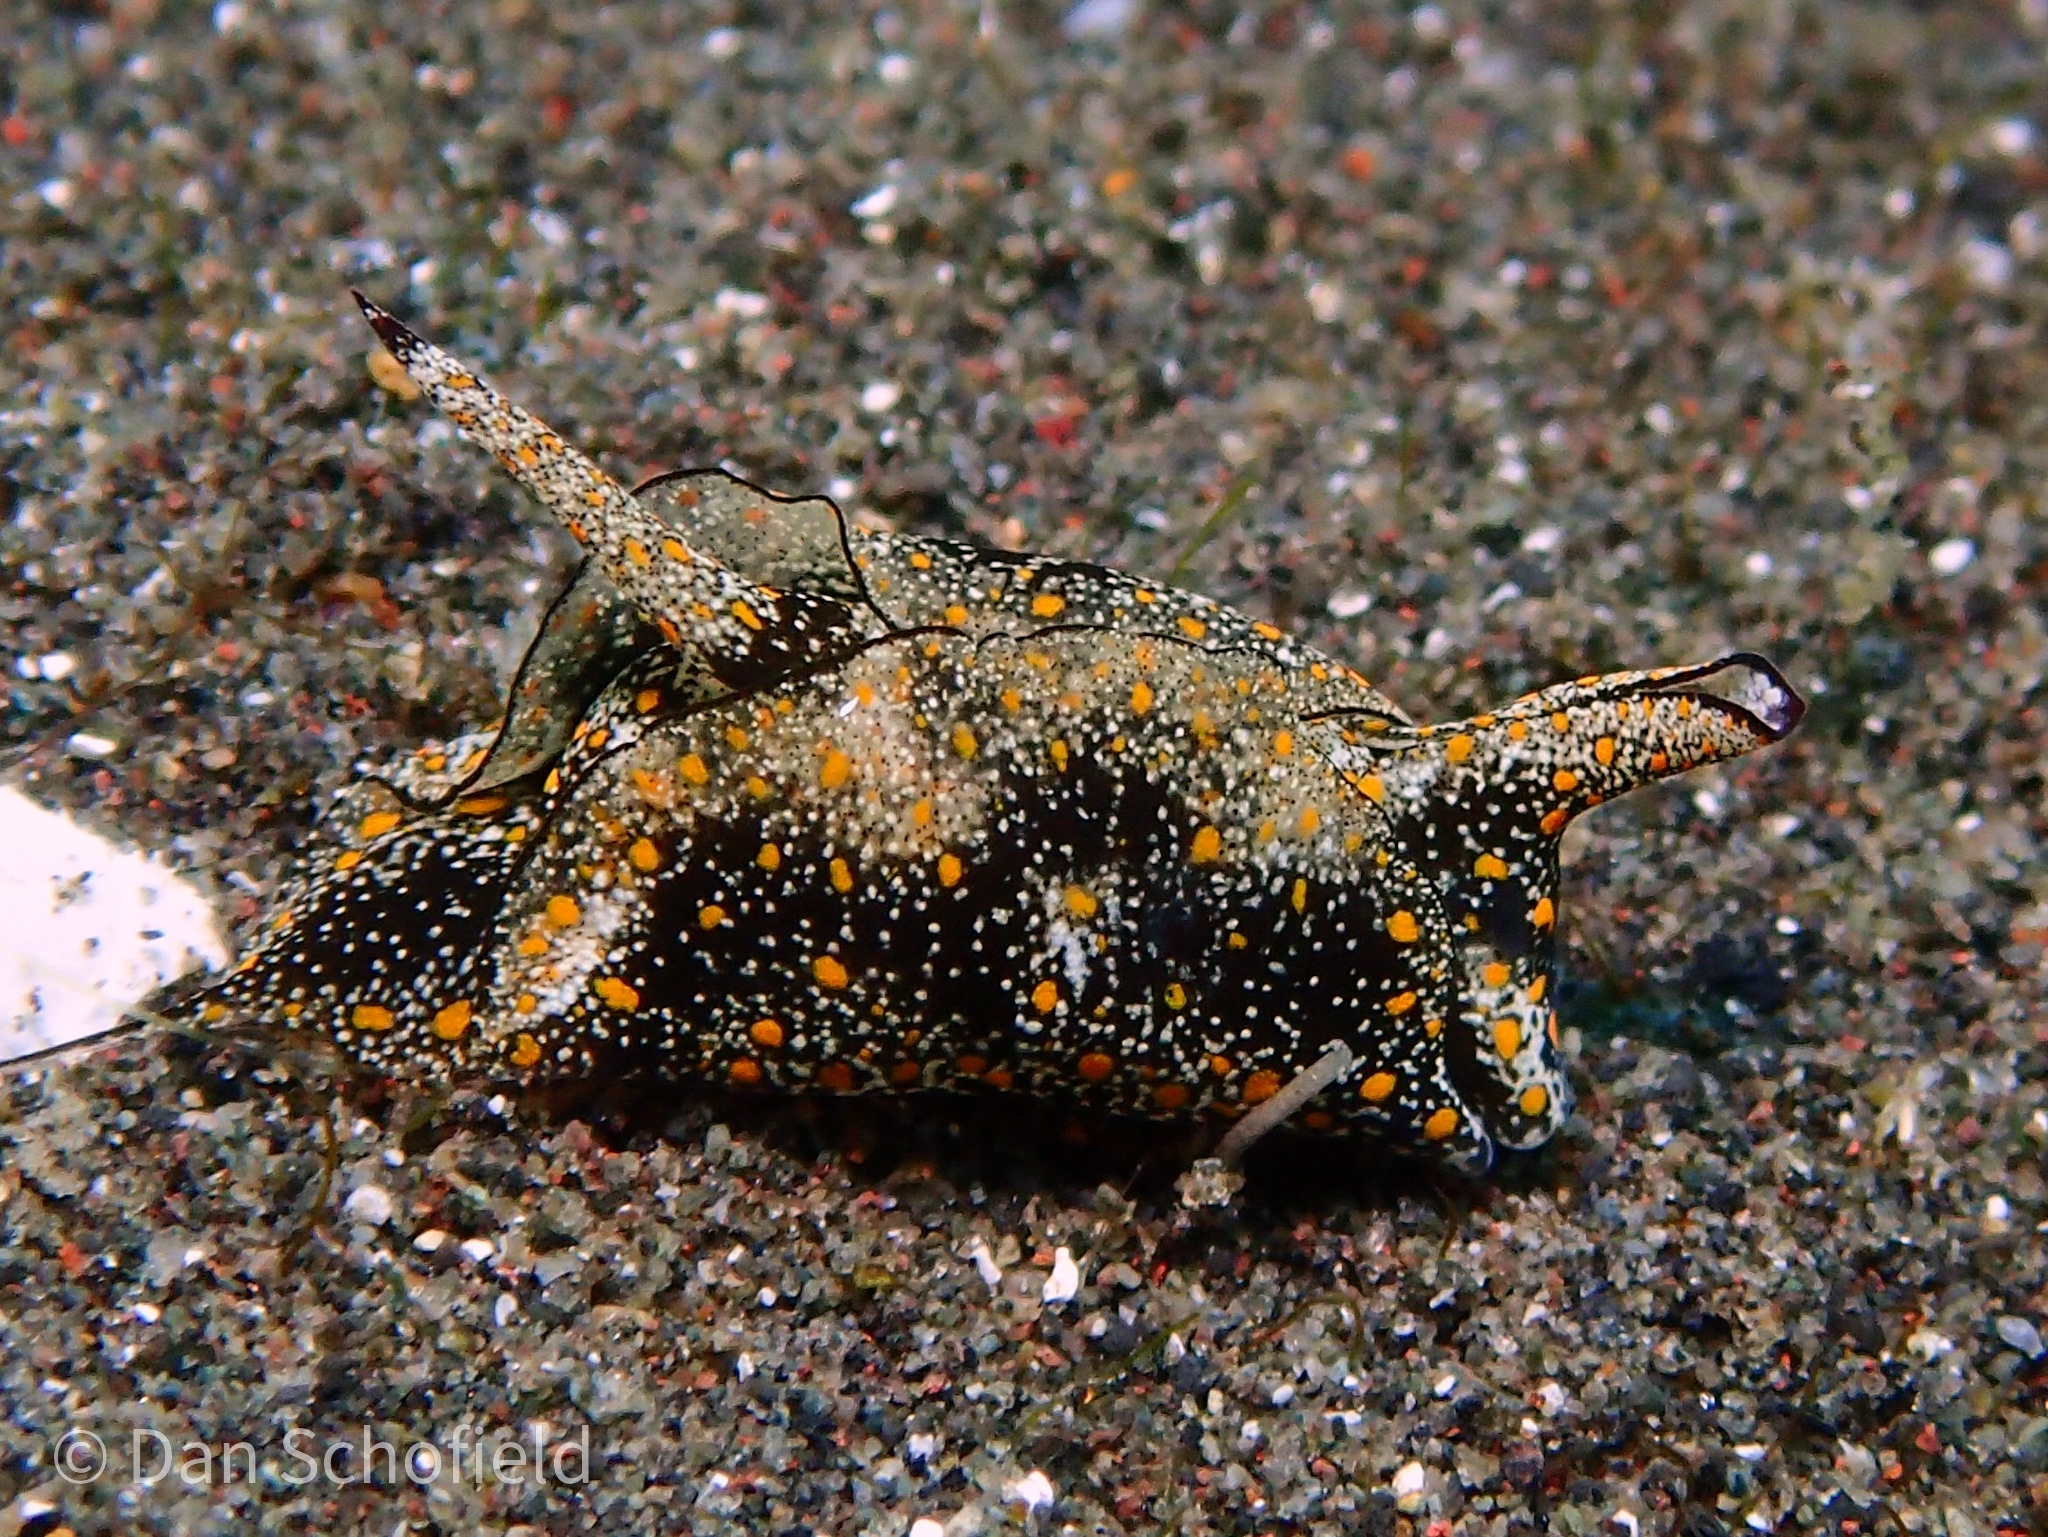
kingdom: Animalia
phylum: Mollusca
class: Gastropoda
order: Cephalaspidea
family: Gastropteridae
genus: Gastropteron
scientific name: Gastropteron bicornutum
